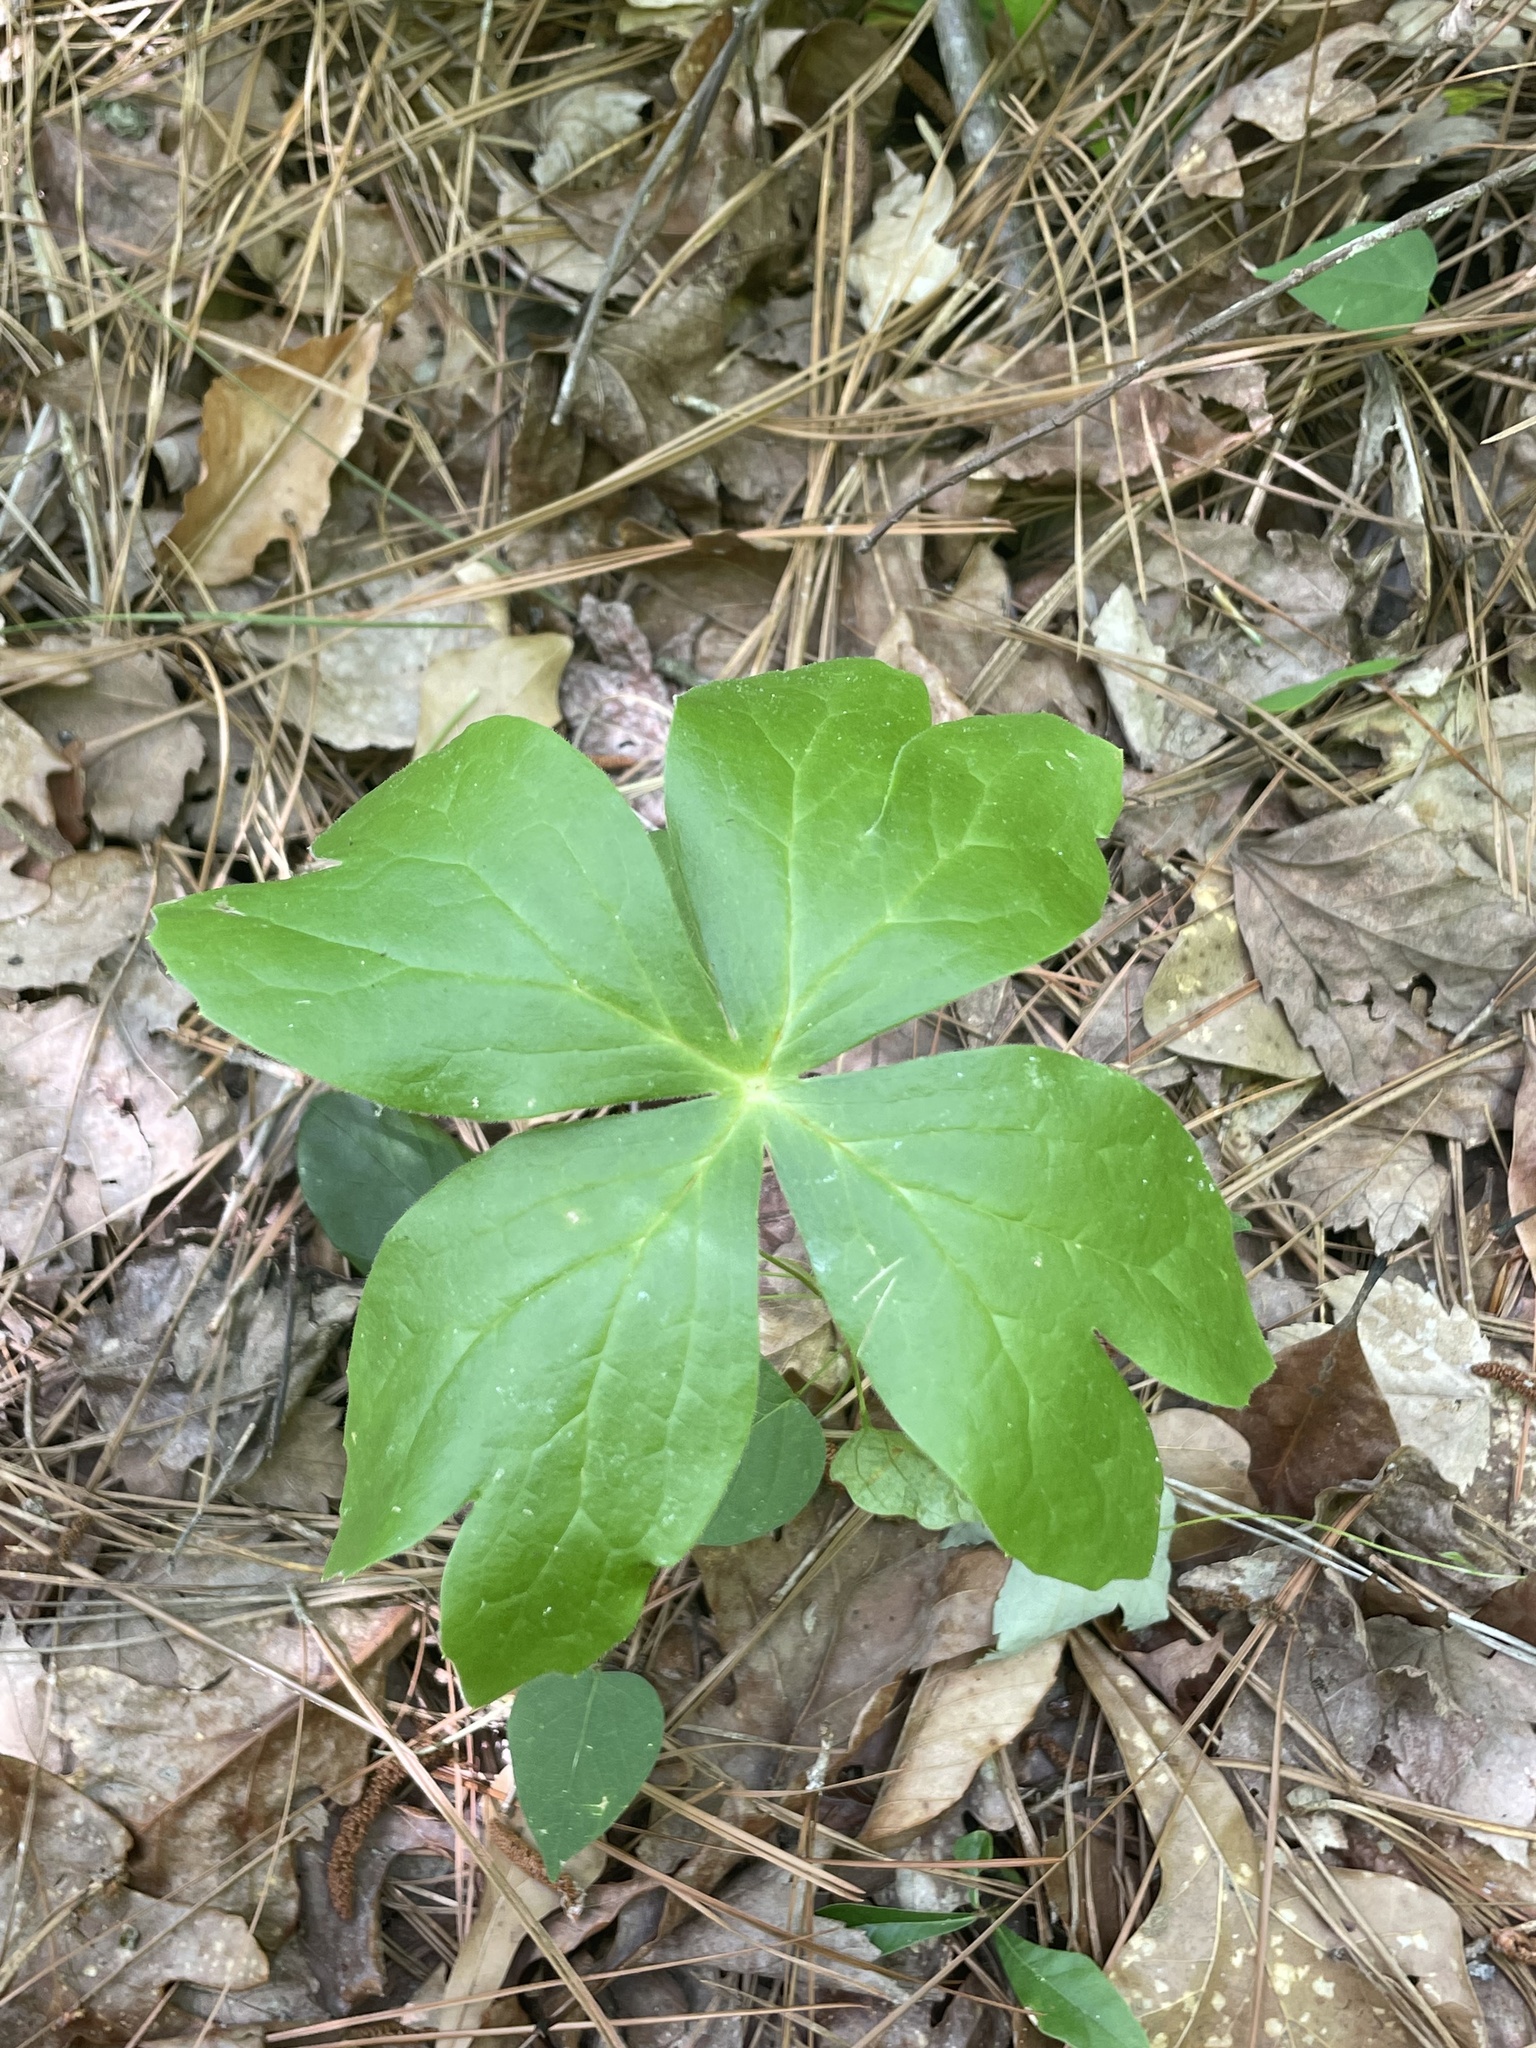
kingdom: Plantae
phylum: Tracheophyta
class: Magnoliopsida
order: Ranunculales
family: Berberidaceae
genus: Podophyllum
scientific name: Podophyllum peltatum
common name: Wild mandrake
